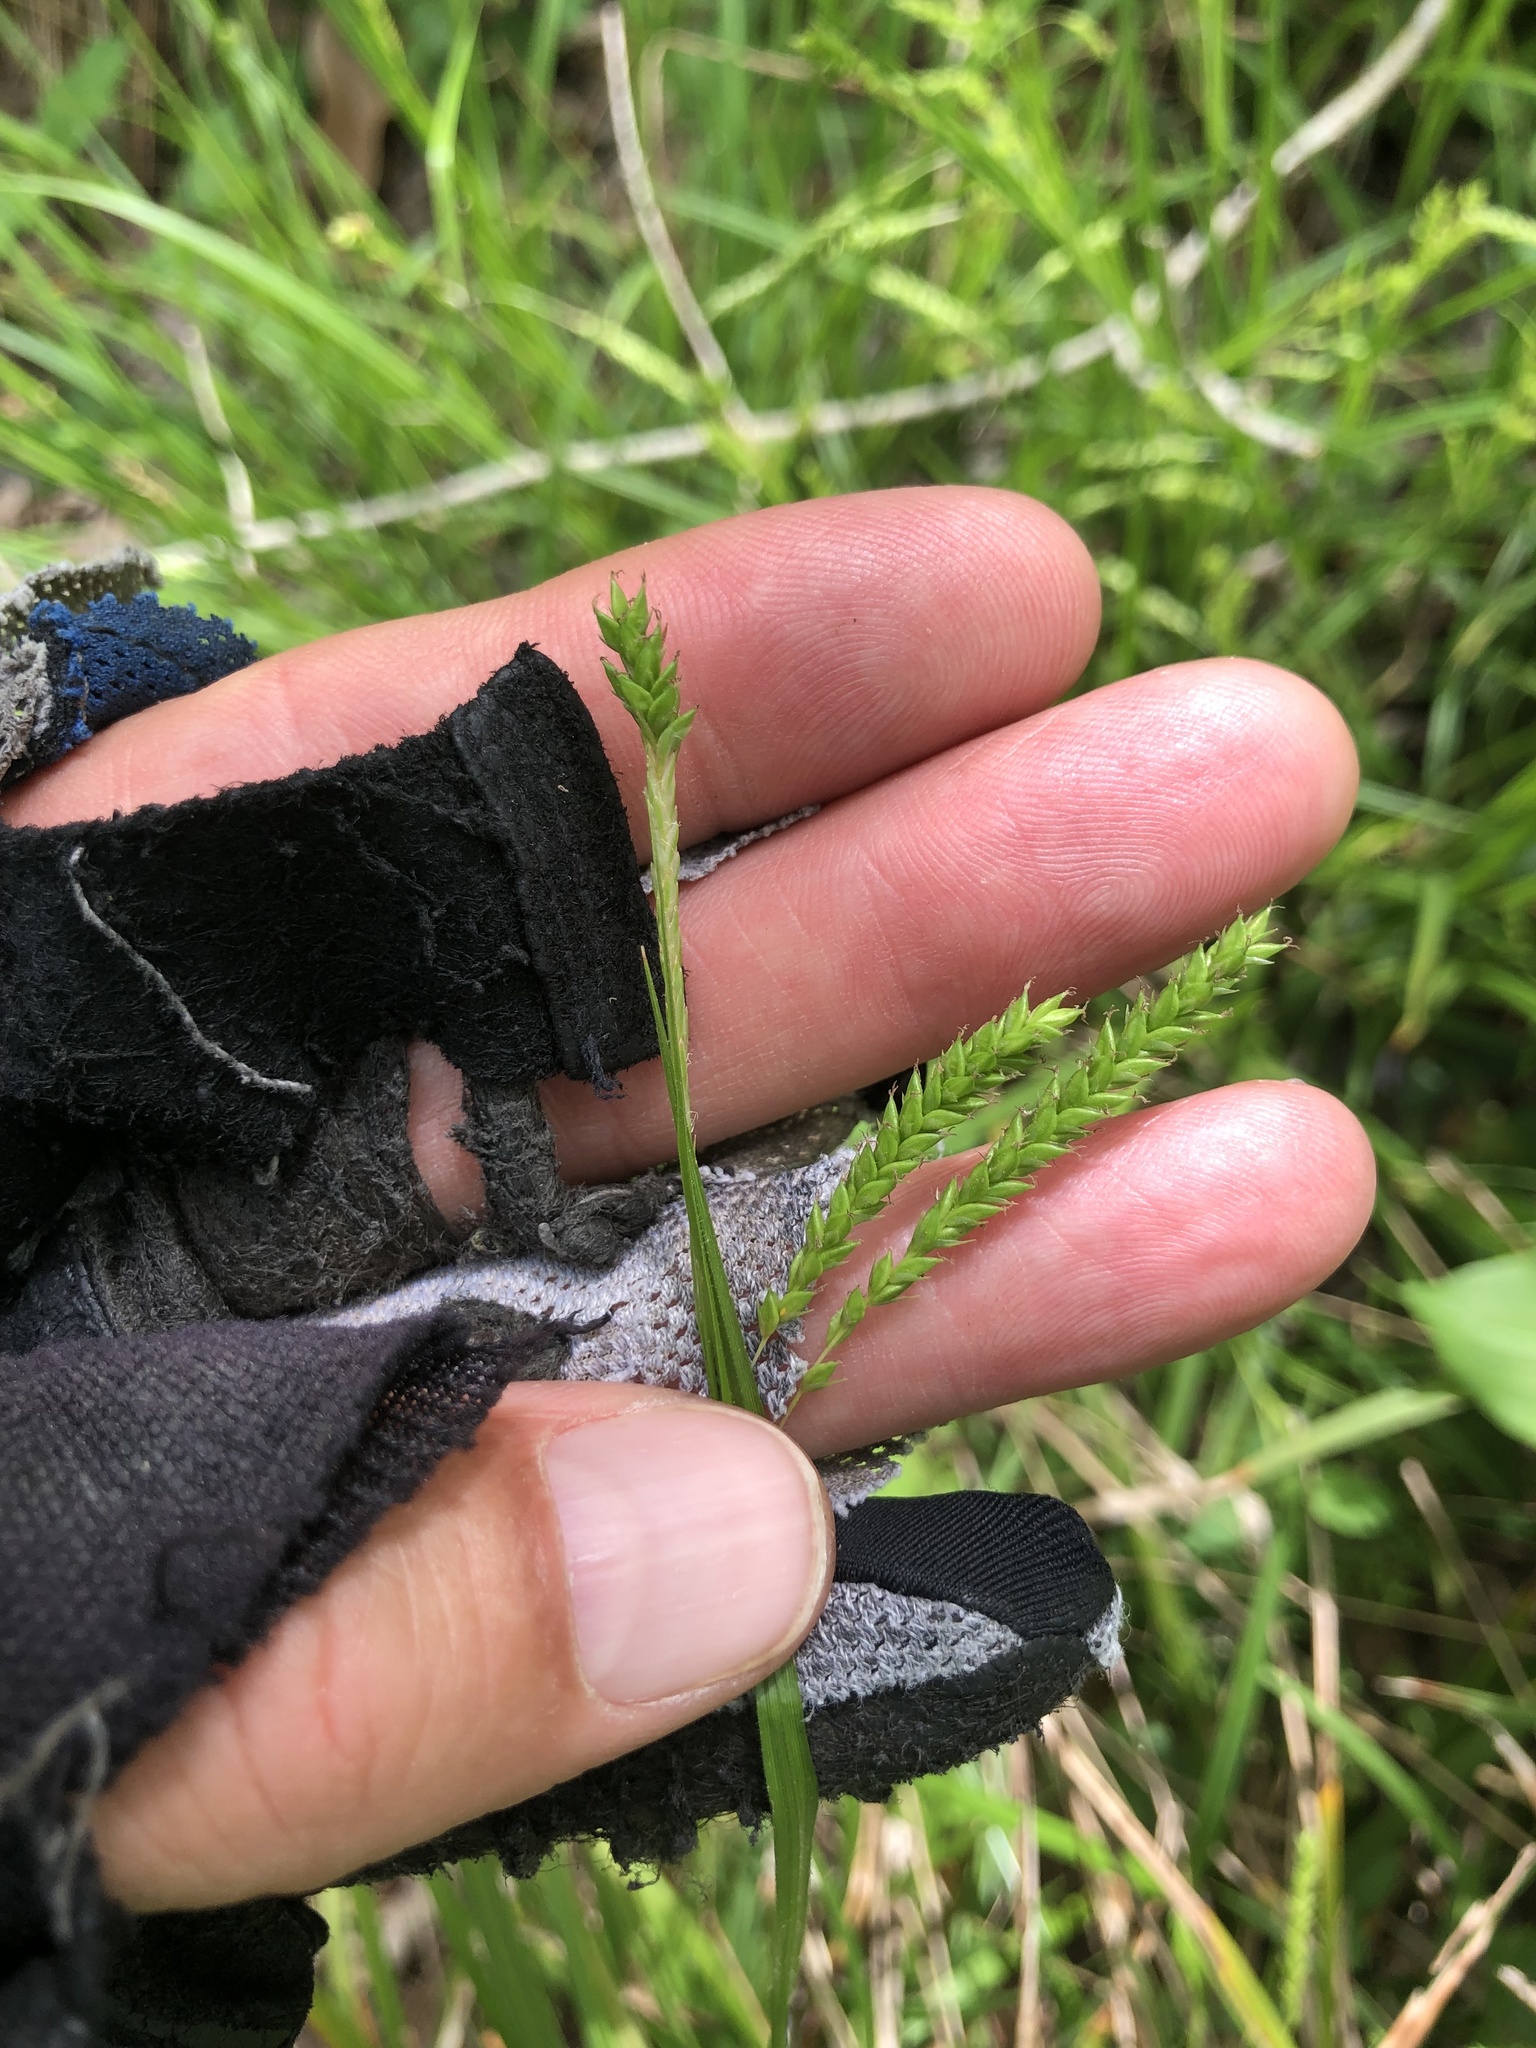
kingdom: Plantae
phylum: Tracheophyta
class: Liliopsida
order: Poales
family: Cyperaceae
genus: Carex
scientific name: Carex oxylepis
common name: Sharpscale sedge
